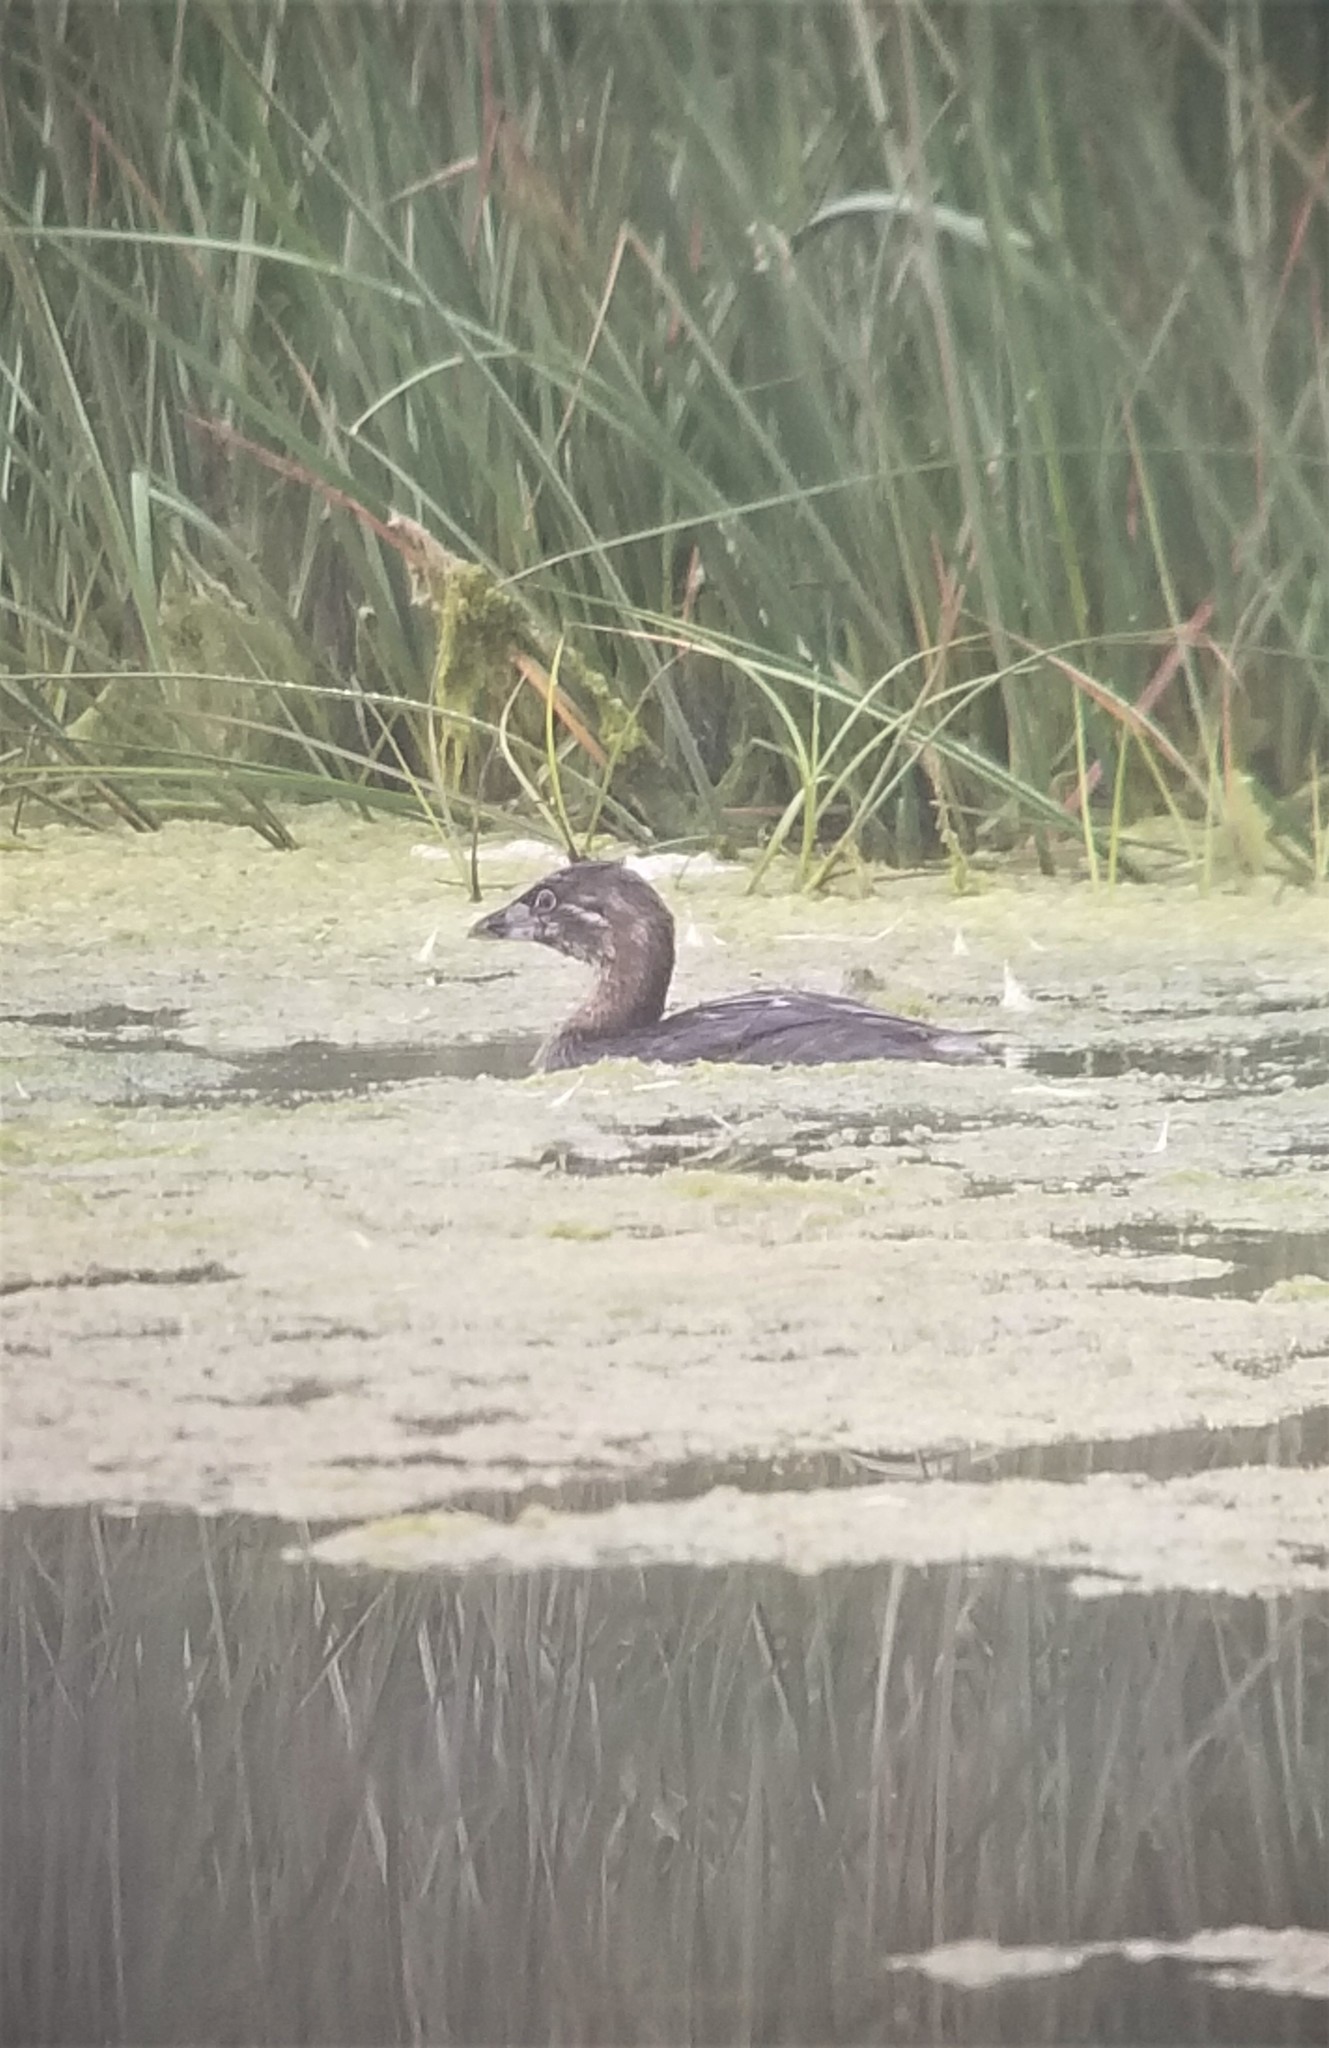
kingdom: Animalia
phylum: Chordata
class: Aves
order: Podicipediformes
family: Podicipedidae
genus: Podilymbus
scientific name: Podilymbus podiceps
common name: Pied-billed grebe
